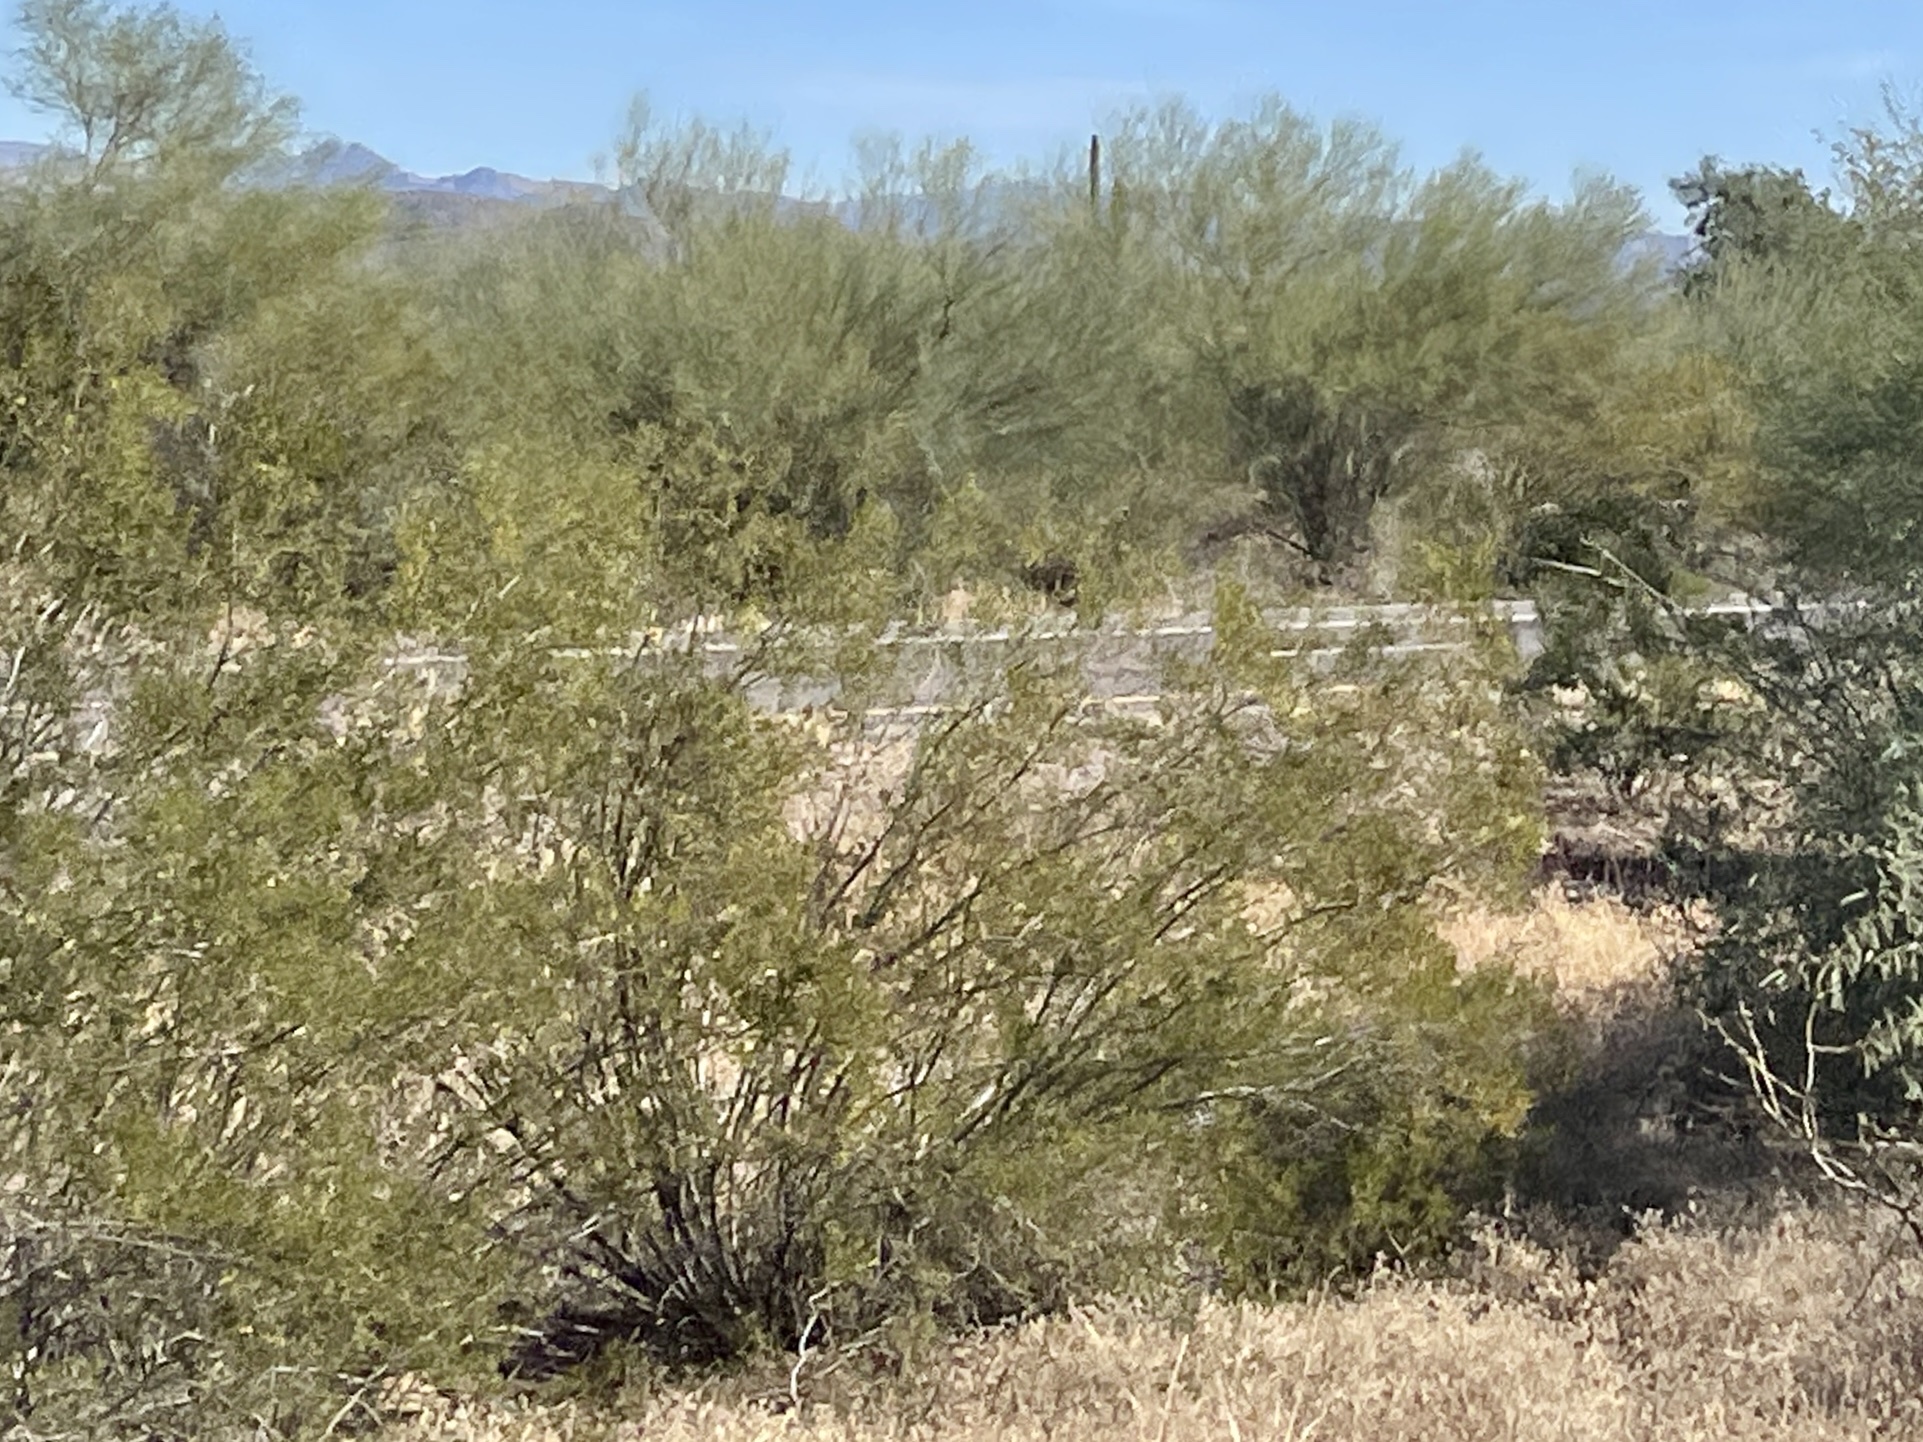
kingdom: Plantae
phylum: Tracheophyta
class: Magnoliopsida
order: Zygophyllales
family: Zygophyllaceae
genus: Larrea
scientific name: Larrea tridentata
